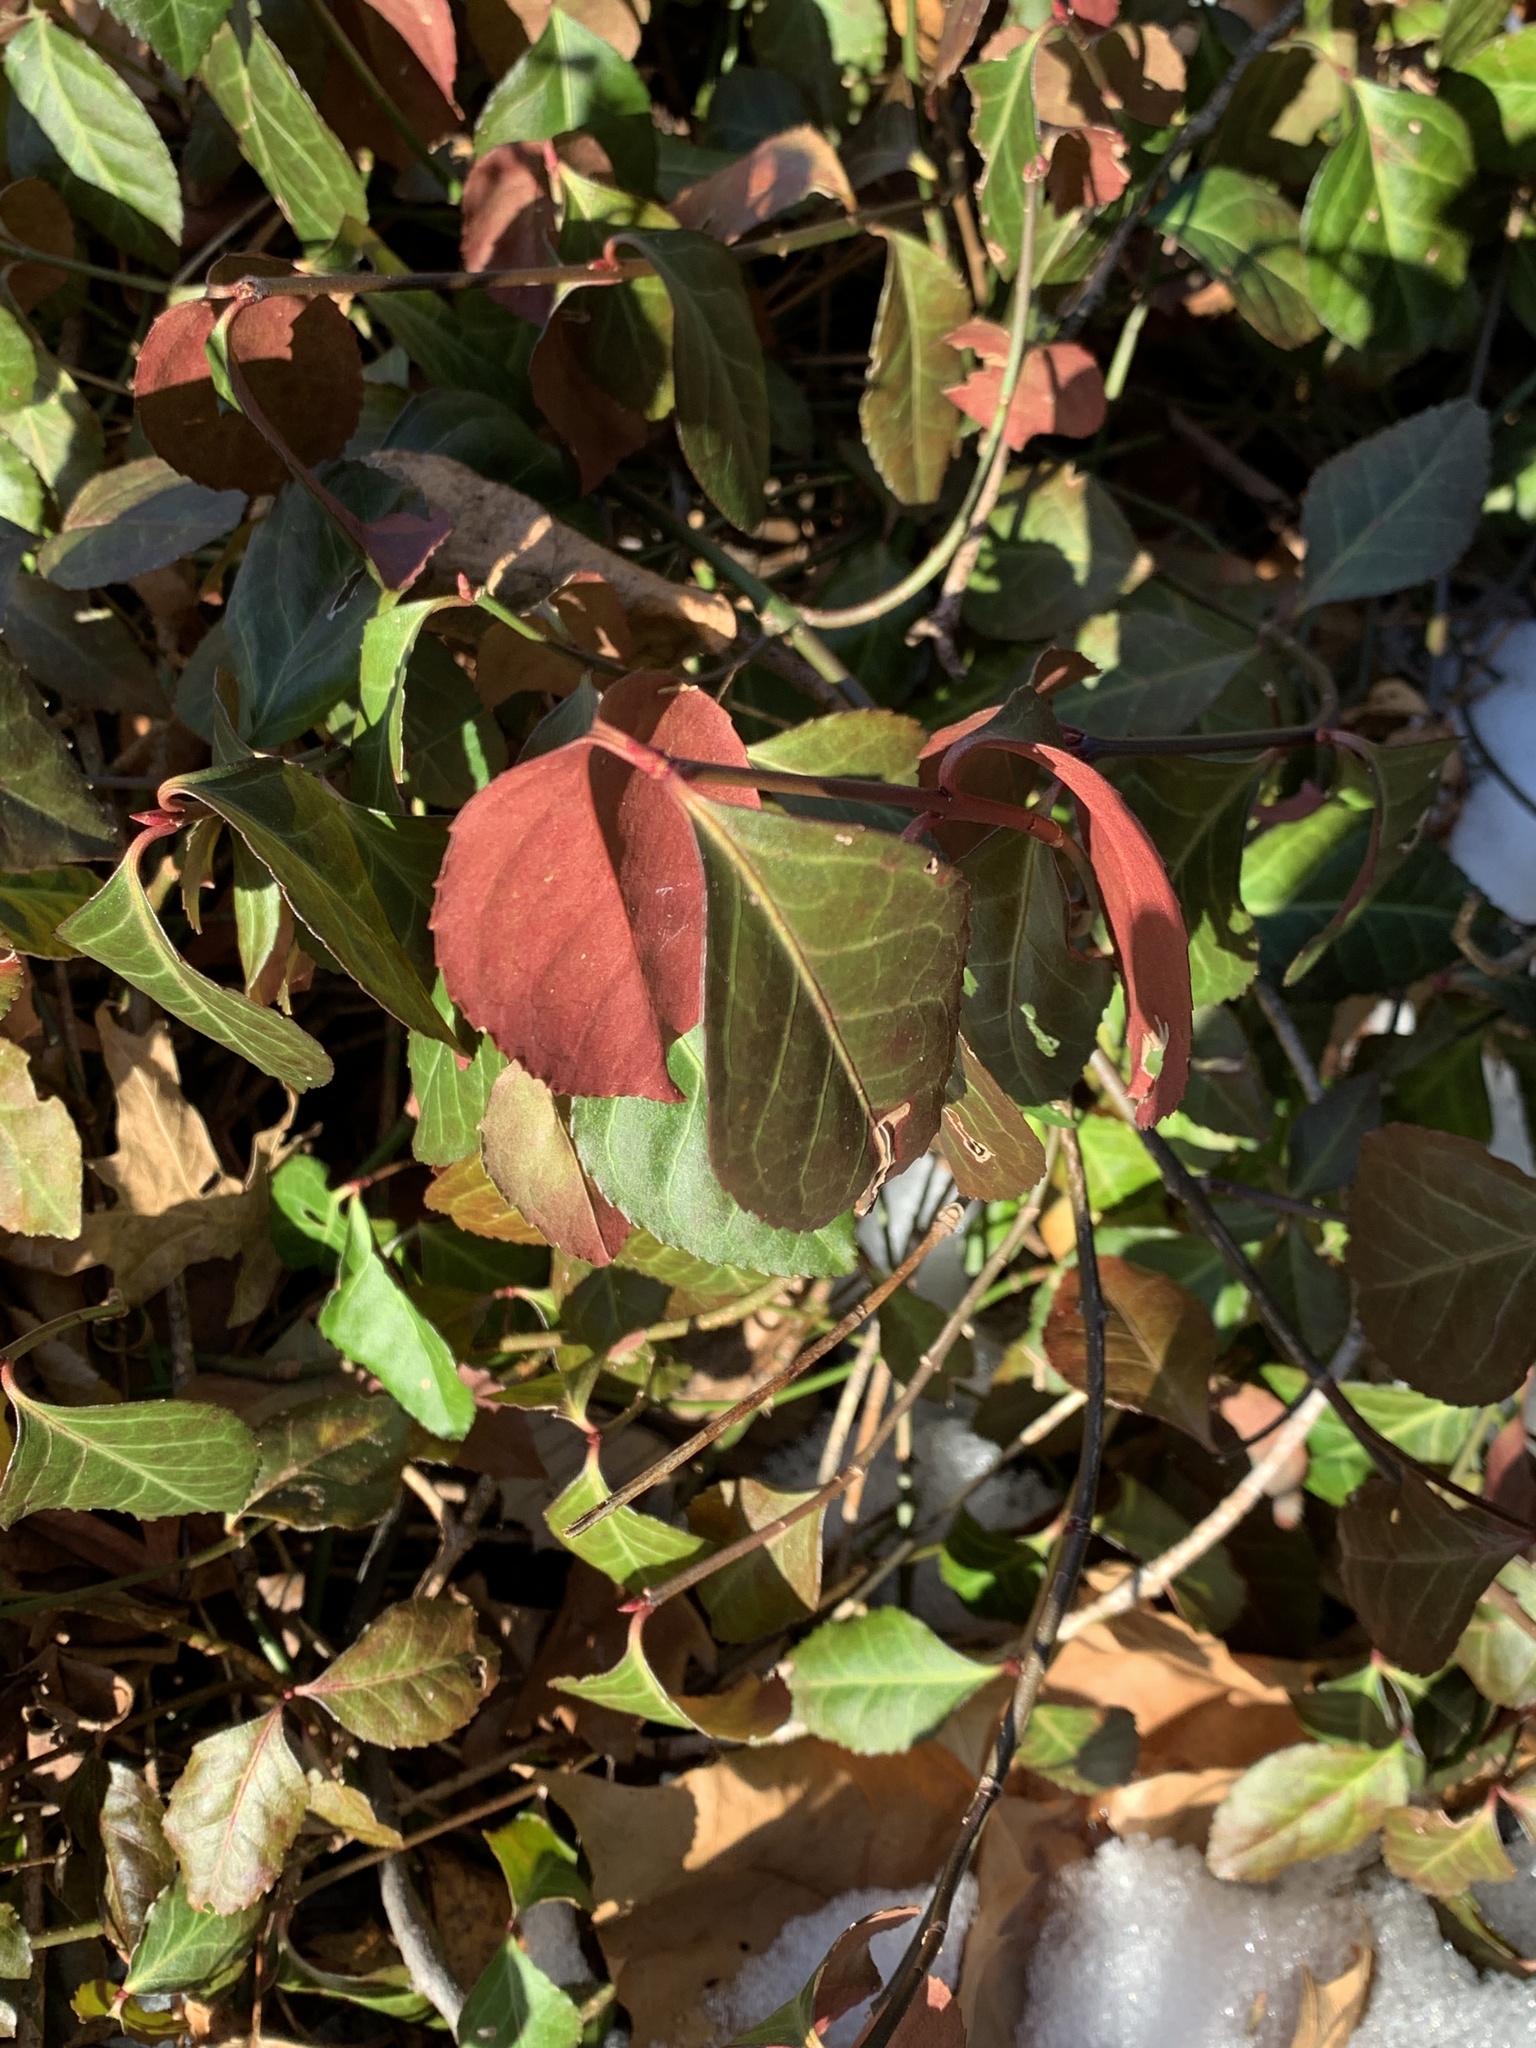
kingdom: Plantae
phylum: Tracheophyta
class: Magnoliopsida
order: Celastrales
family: Celastraceae
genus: Euonymus
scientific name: Euonymus fortunei
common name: Climbing euonymus
